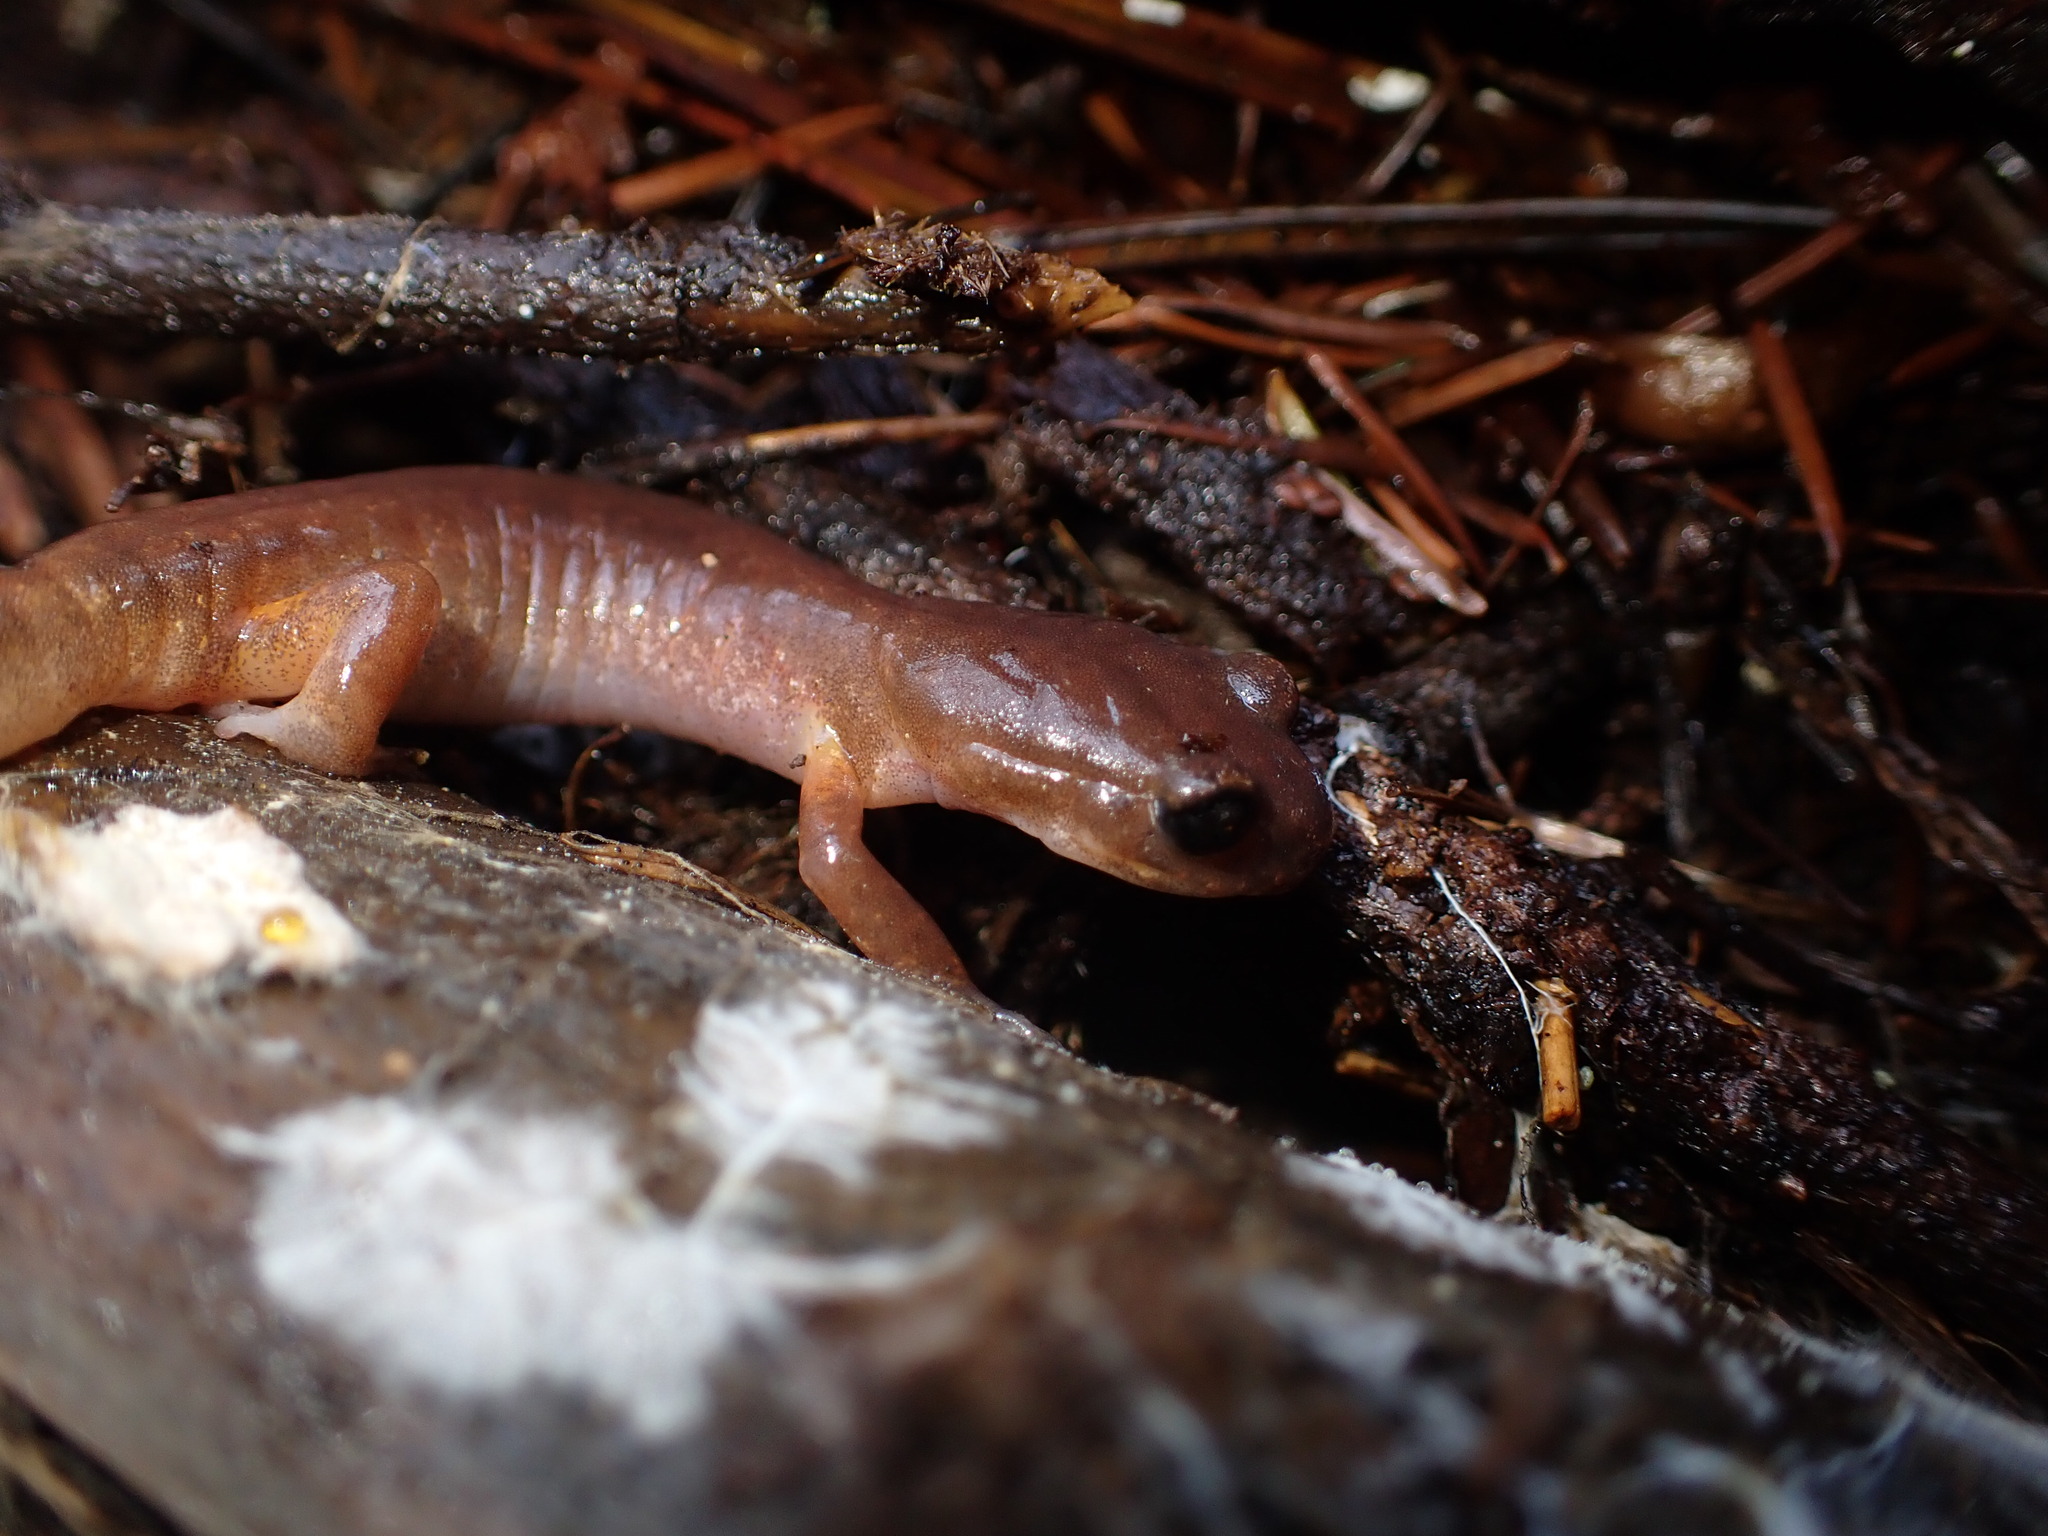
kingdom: Animalia
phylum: Chordata
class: Amphibia
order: Caudata
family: Plethodontidae
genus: Ensatina
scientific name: Ensatina eschscholtzii
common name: Ensatina
